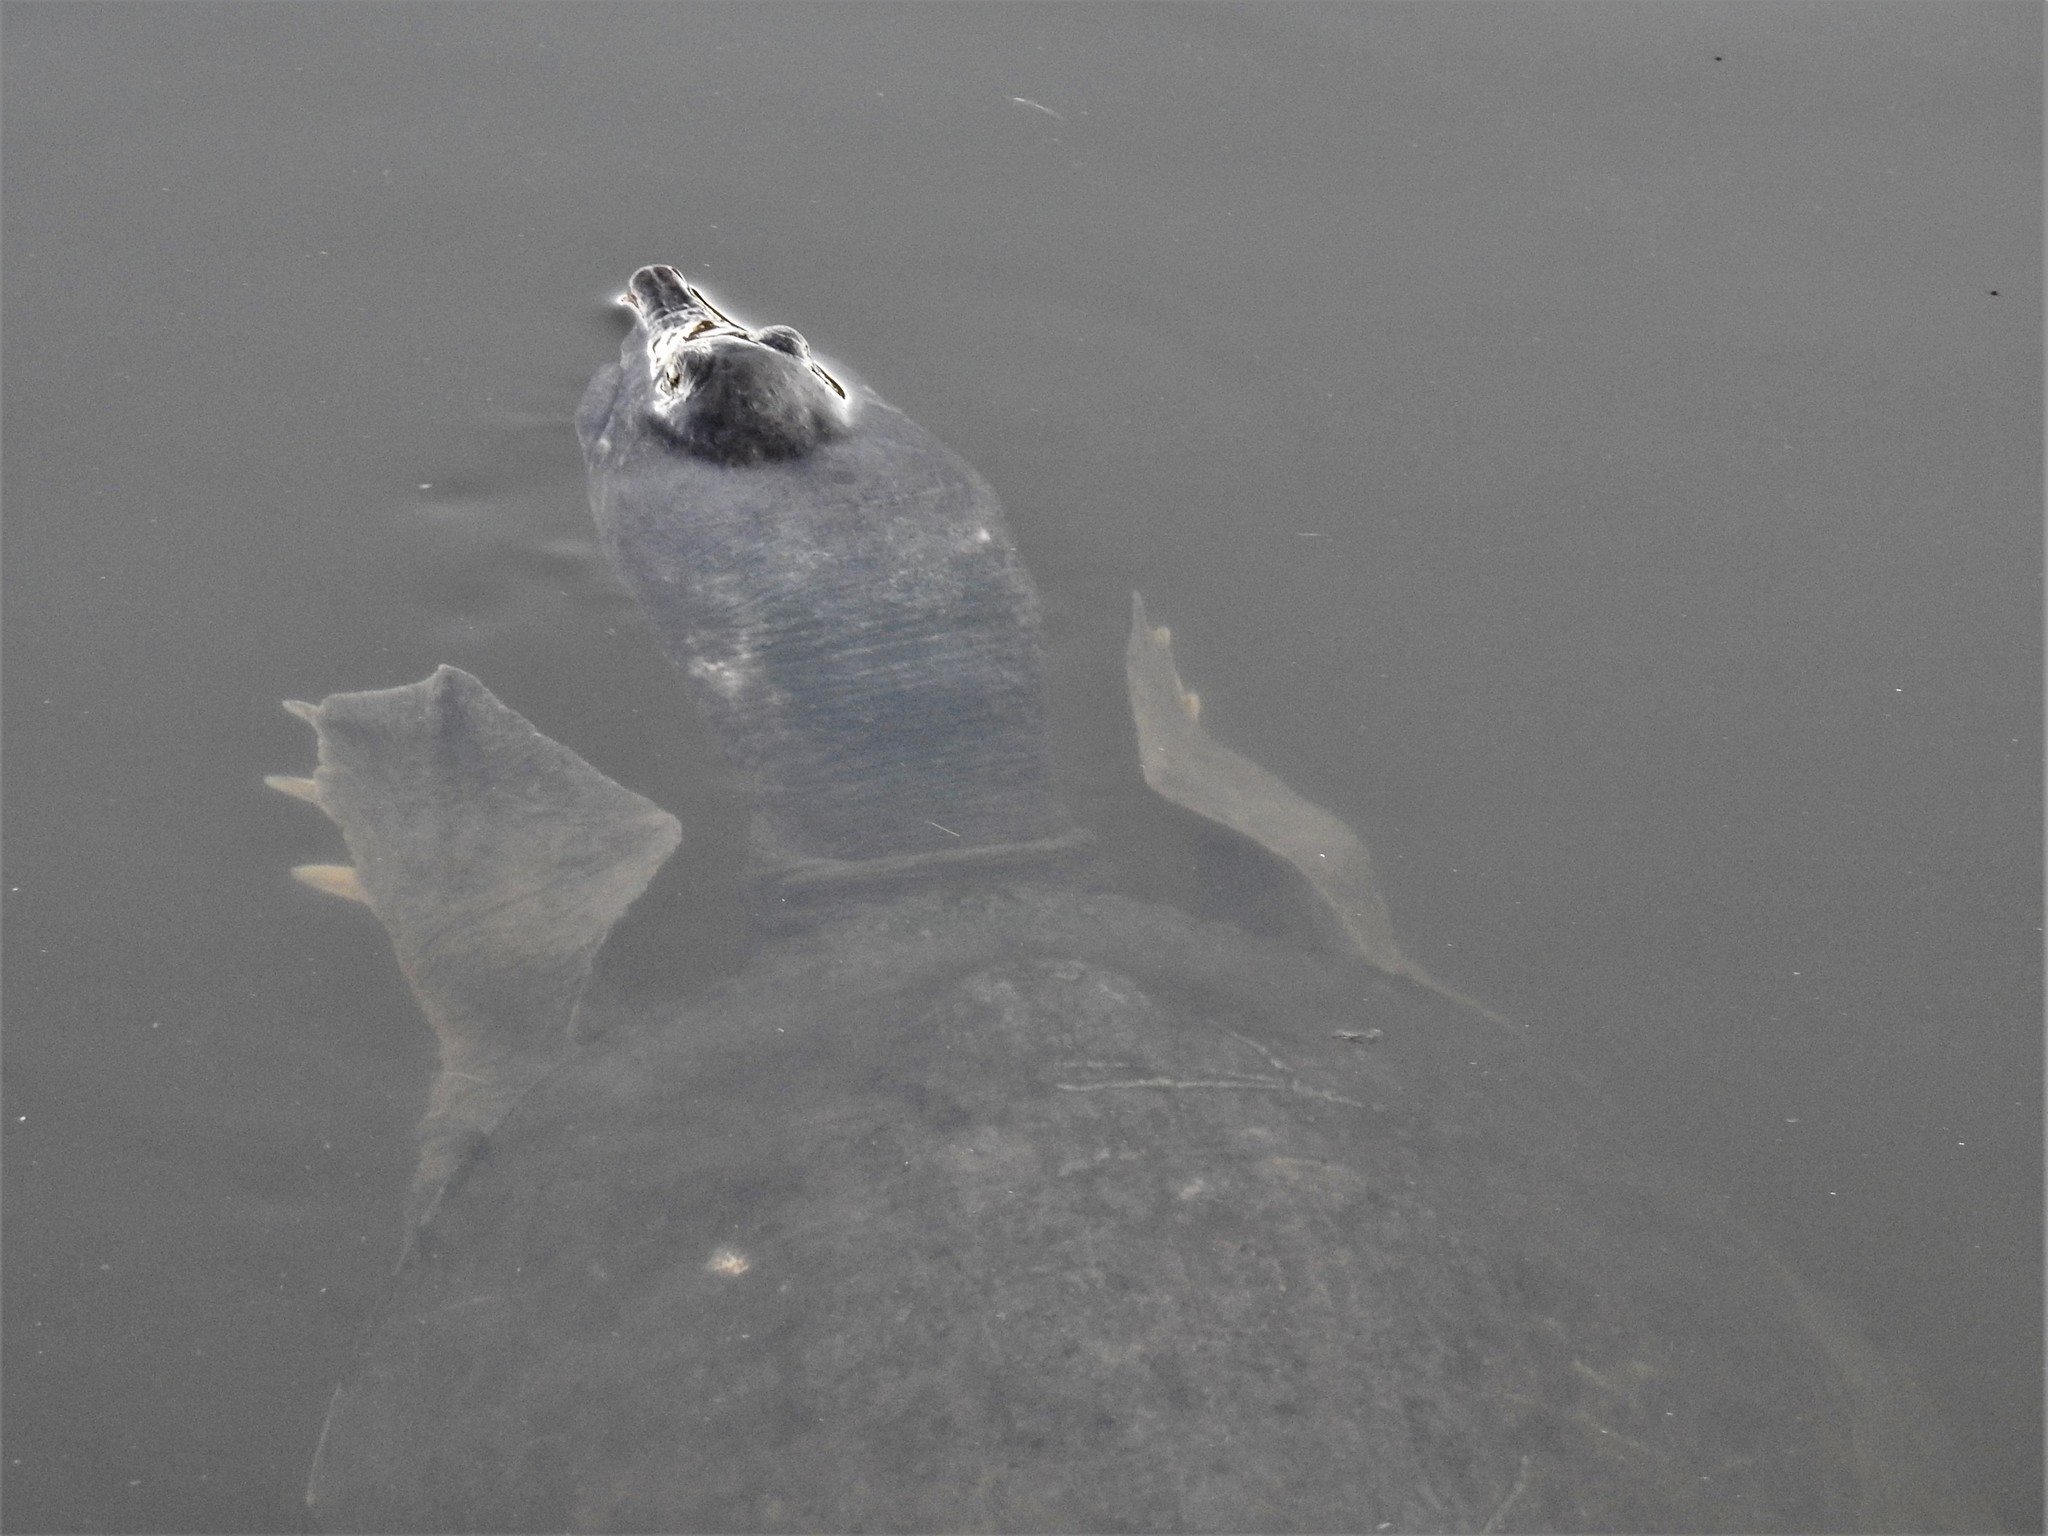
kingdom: Animalia
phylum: Chordata
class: Testudines
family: Trionychidae
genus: Apalone
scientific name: Apalone ferox
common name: Florida softshell turtle
